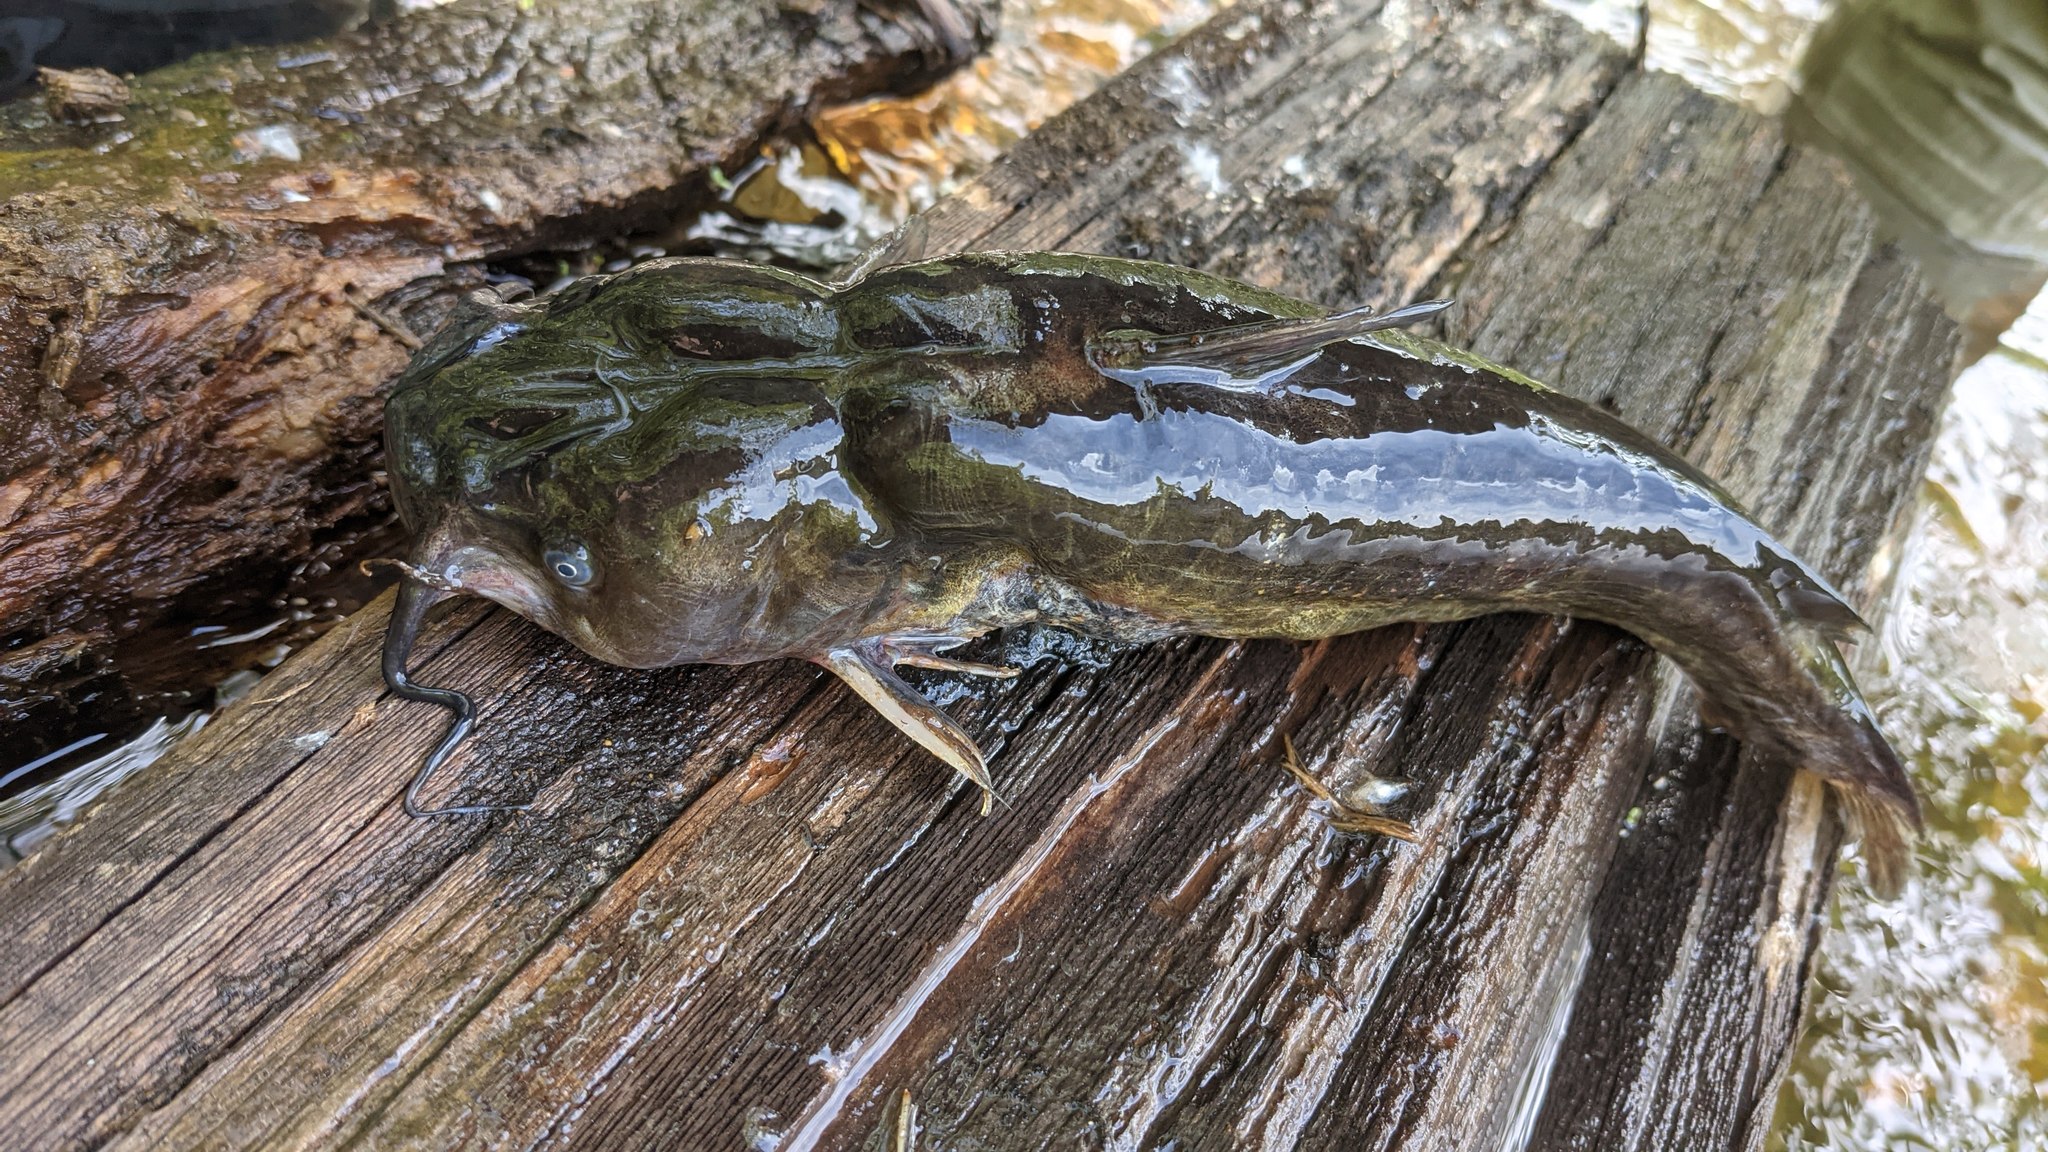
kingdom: Animalia
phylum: Chordata
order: Siluriformes
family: Ictaluridae
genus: Ameiurus
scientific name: Ameiurus nebulosus
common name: Brown bullhead
